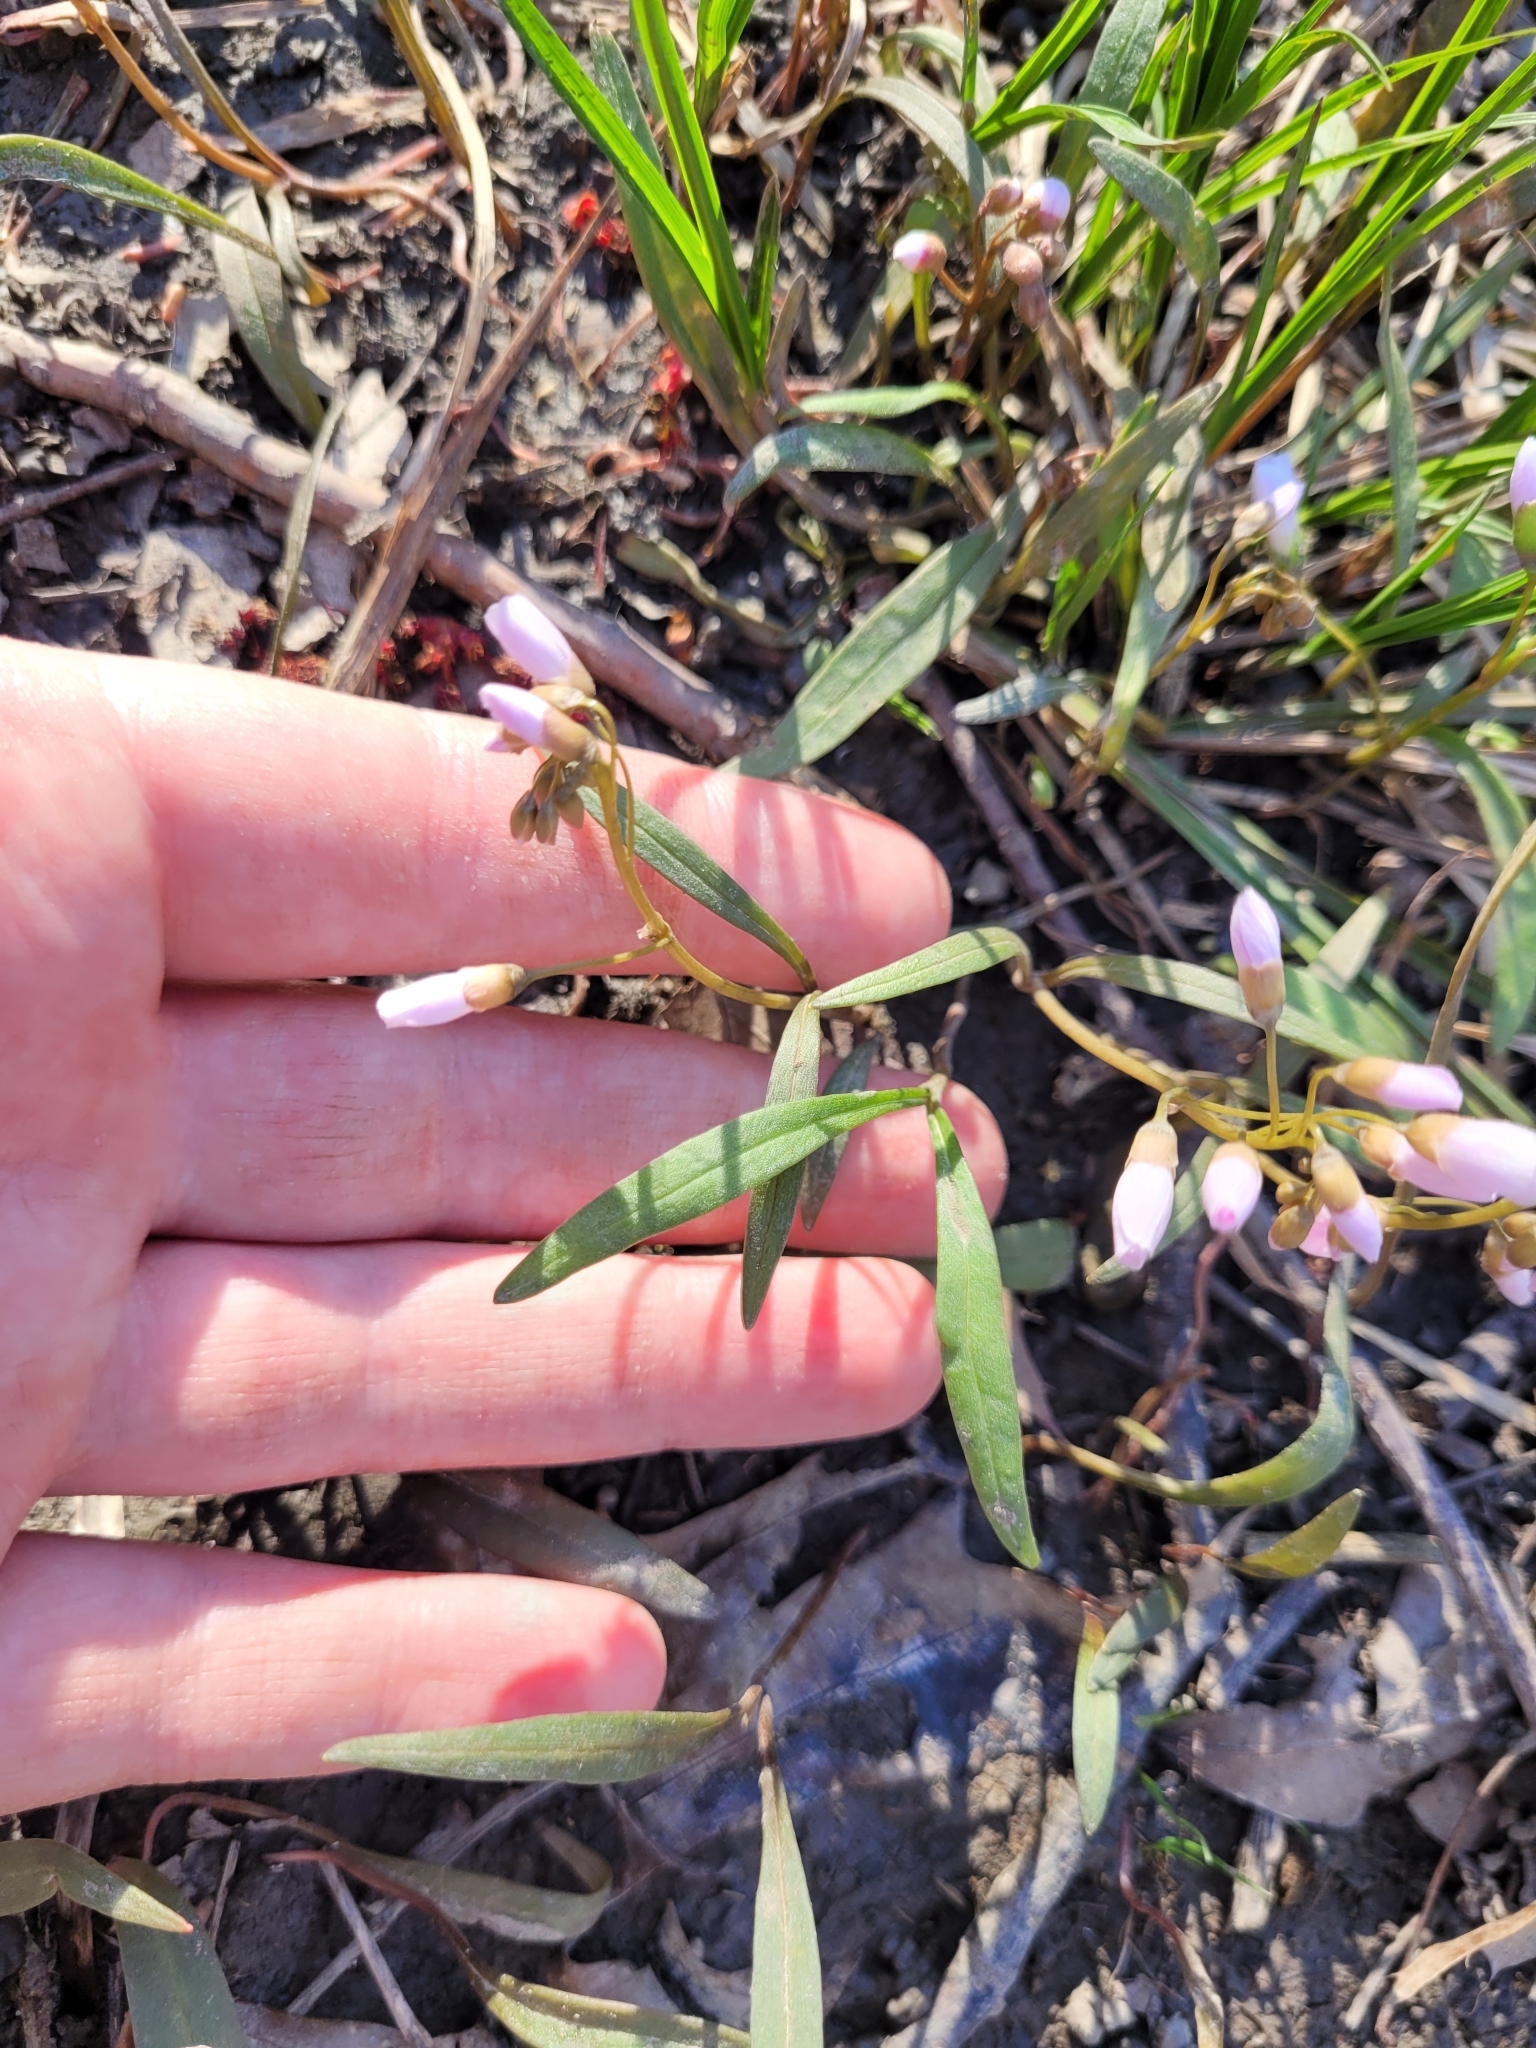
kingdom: Plantae
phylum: Tracheophyta
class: Magnoliopsida
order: Caryophyllales
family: Montiaceae
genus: Claytonia
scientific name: Claytonia virginica
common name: Virginia springbeauty
